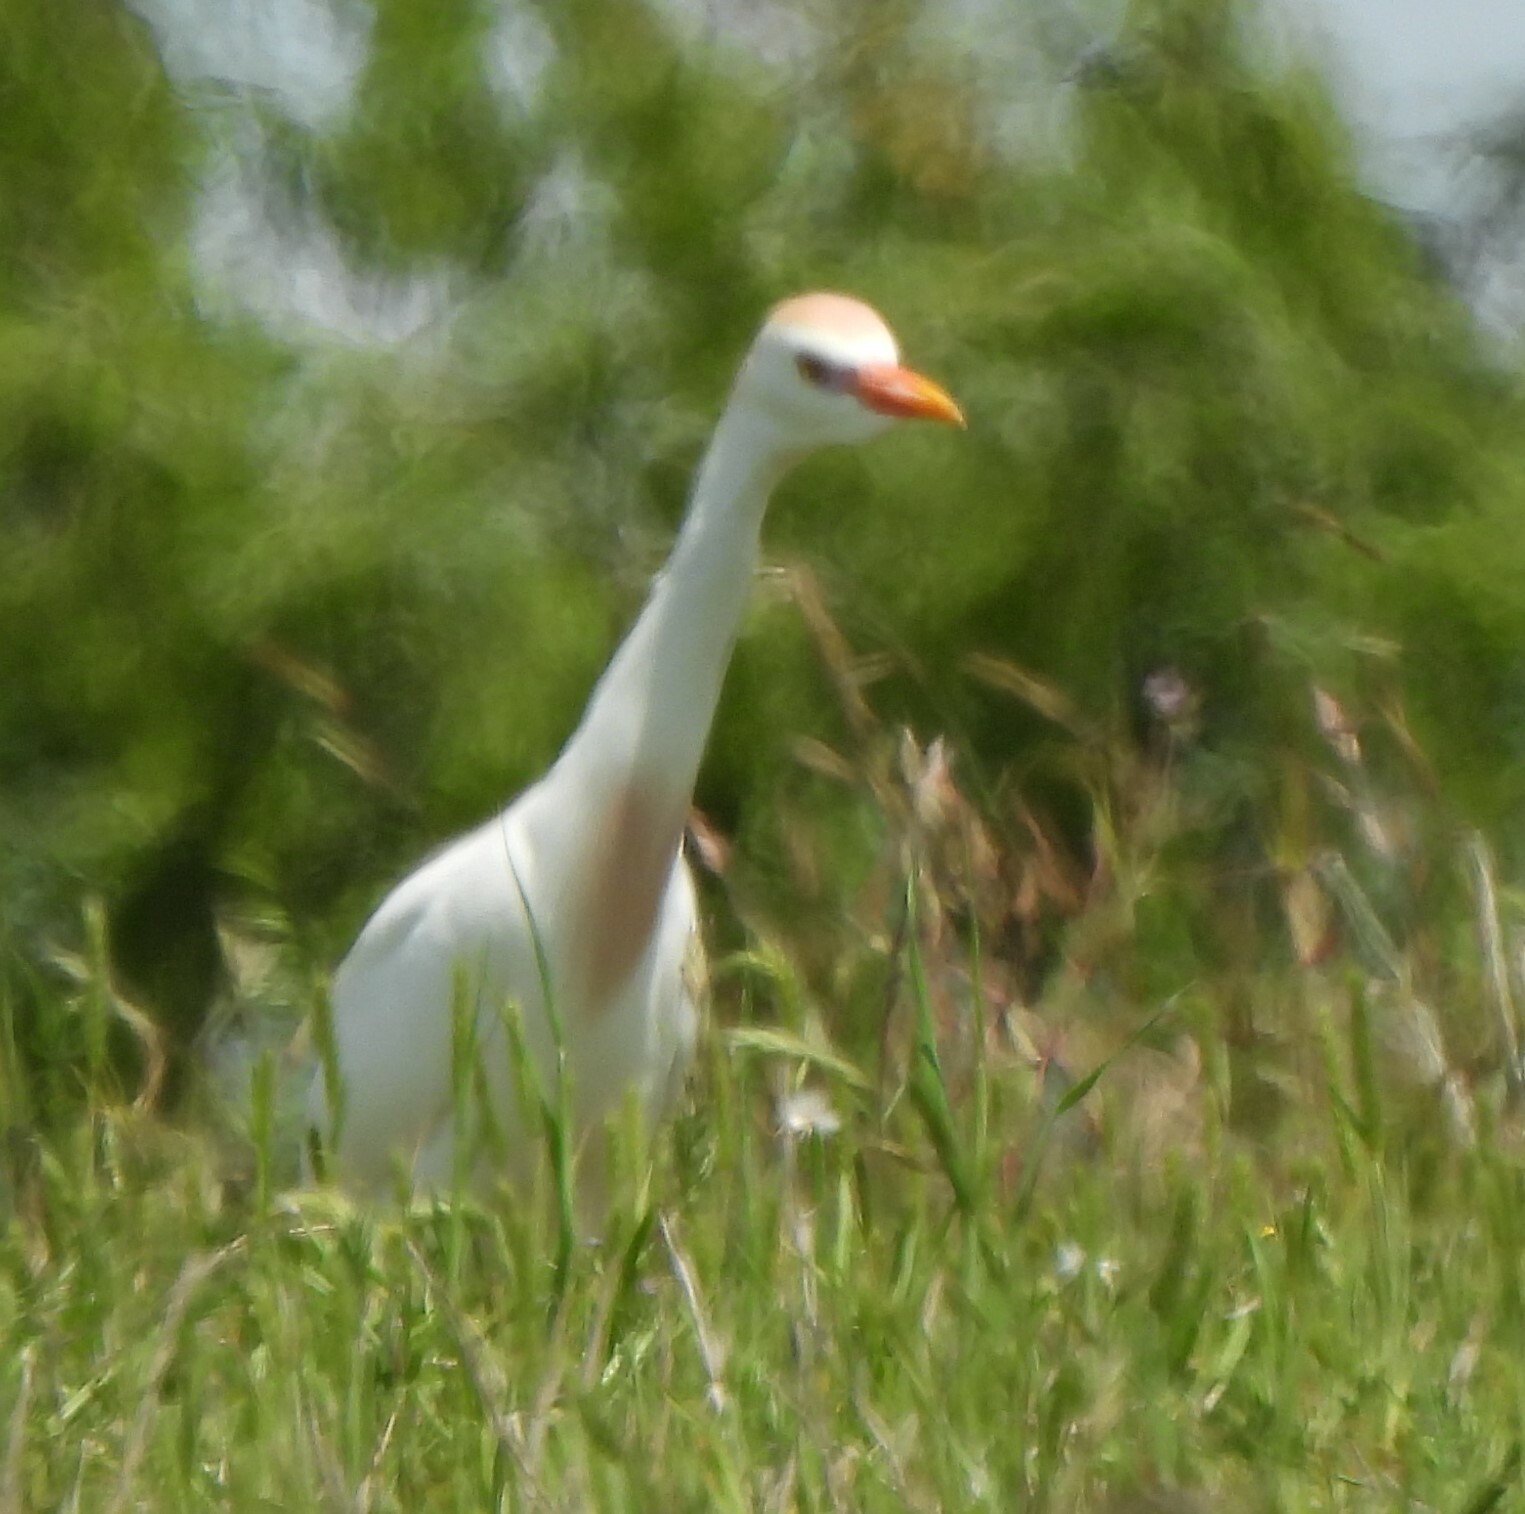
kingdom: Animalia
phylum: Chordata
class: Aves
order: Pelecaniformes
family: Ardeidae
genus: Bubulcus
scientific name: Bubulcus ibis
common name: Cattle egret
